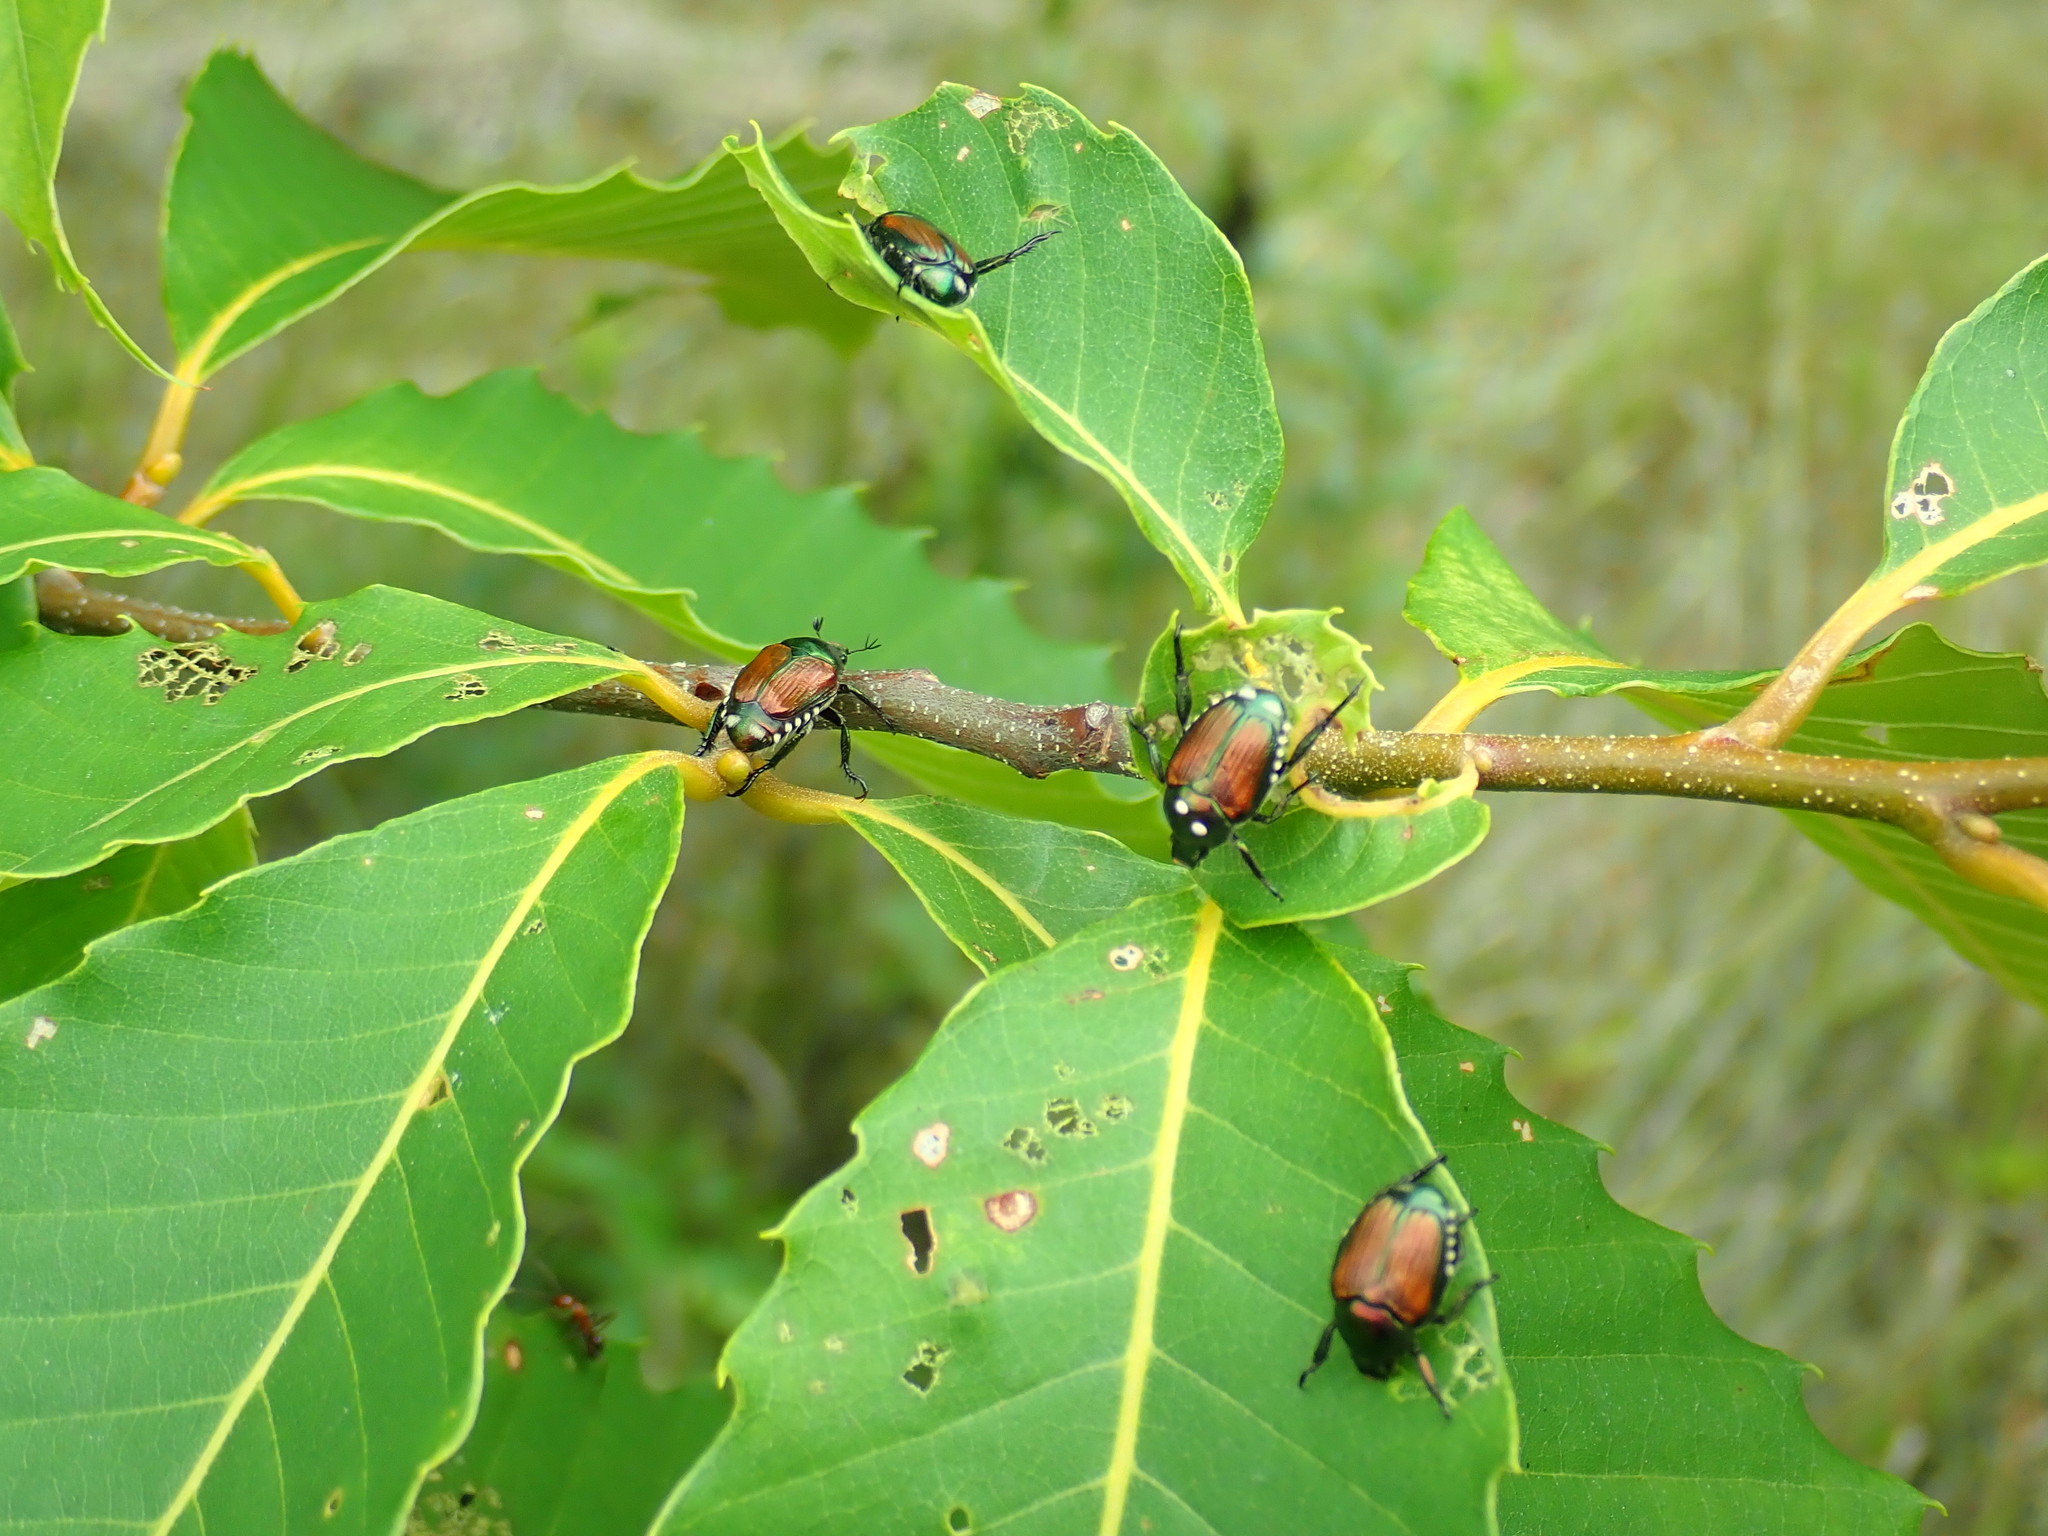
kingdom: Animalia
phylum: Arthropoda
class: Insecta
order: Coleoptera
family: Scarabaeidae
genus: Popillia
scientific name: Popillia japonica
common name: Japanese beetle
